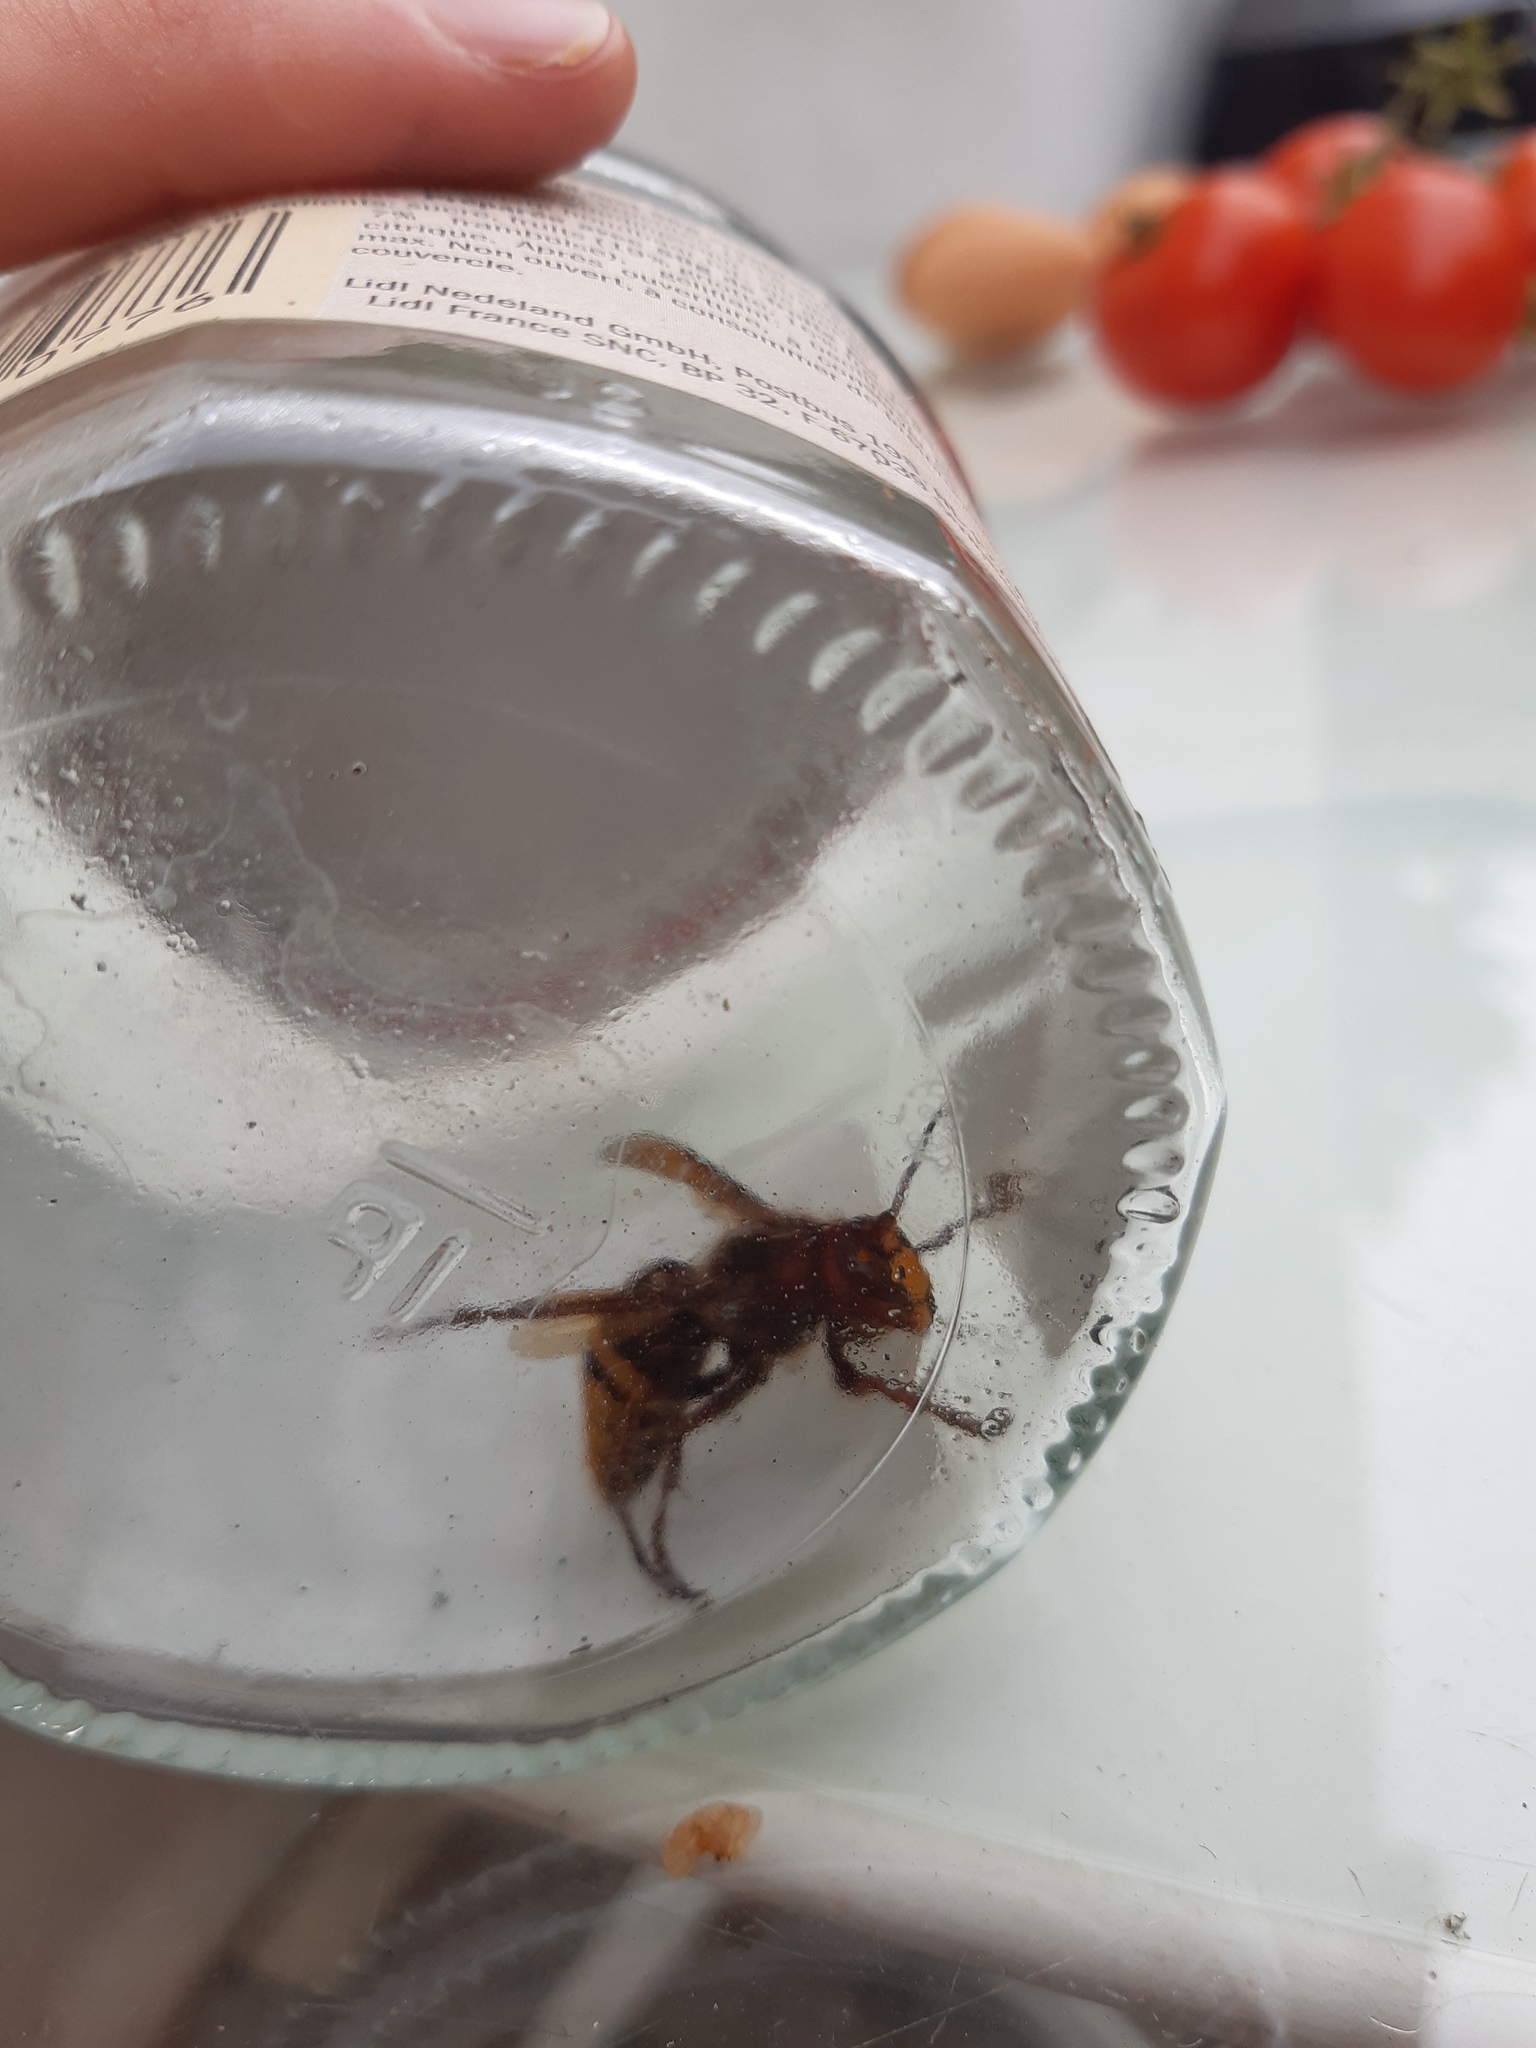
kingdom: Animalia
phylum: Arthropoda
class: Insecta
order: Hymenoptera
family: Vespidae
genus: Vespa
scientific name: Vespa crabro
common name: Hornet
